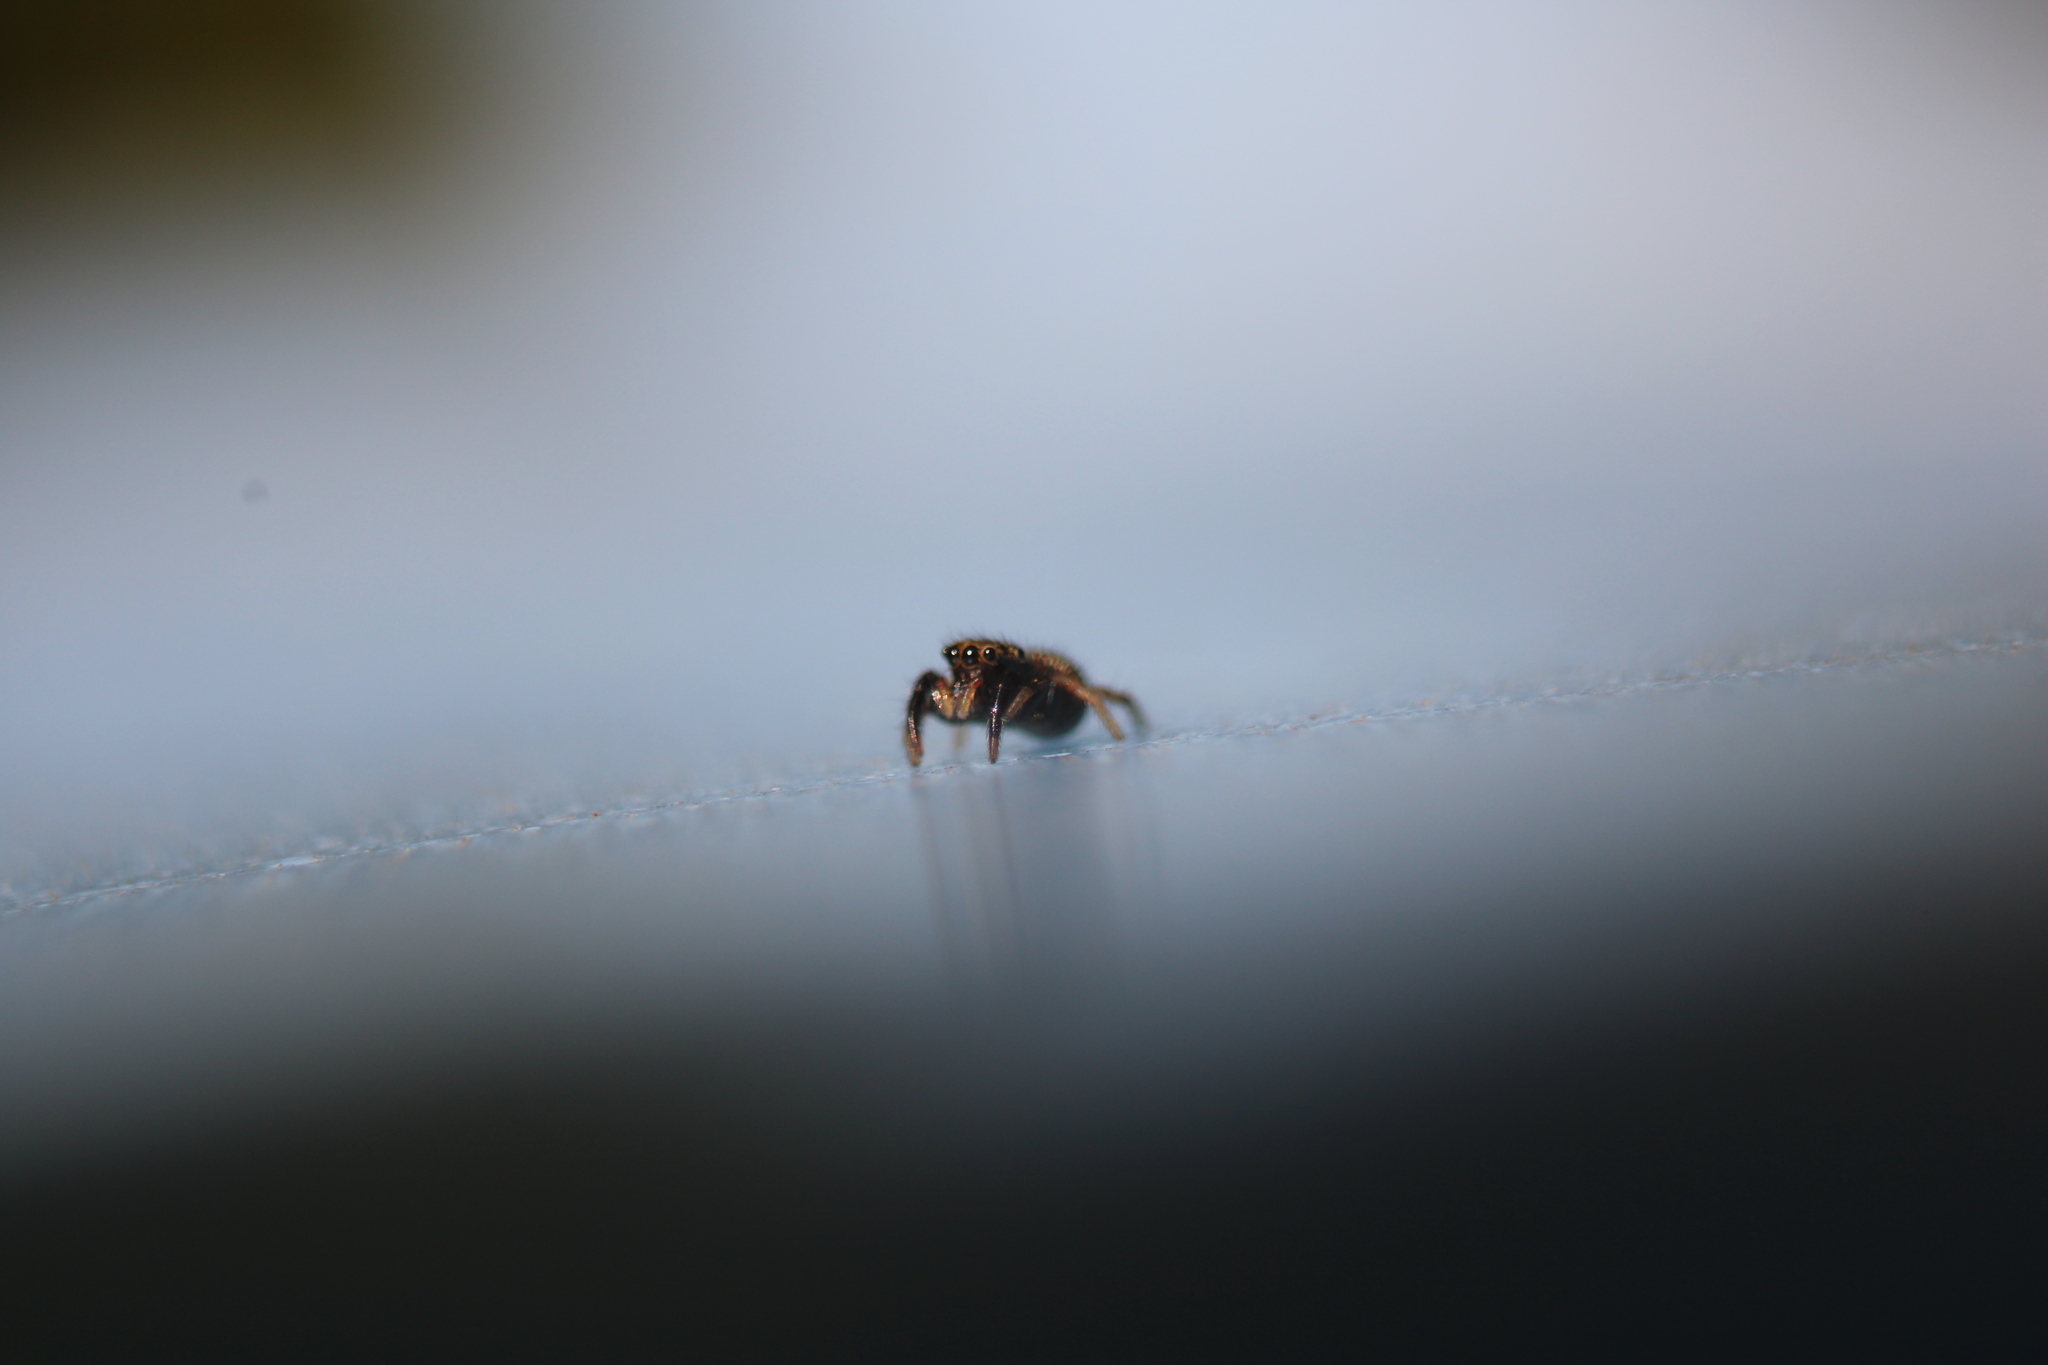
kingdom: Animalia
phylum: Arthropoda
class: Arachnida
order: Araneae
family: Salticidae
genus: Paraphidippus
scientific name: Paraphidippus aurantius
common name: Jumping spiders
